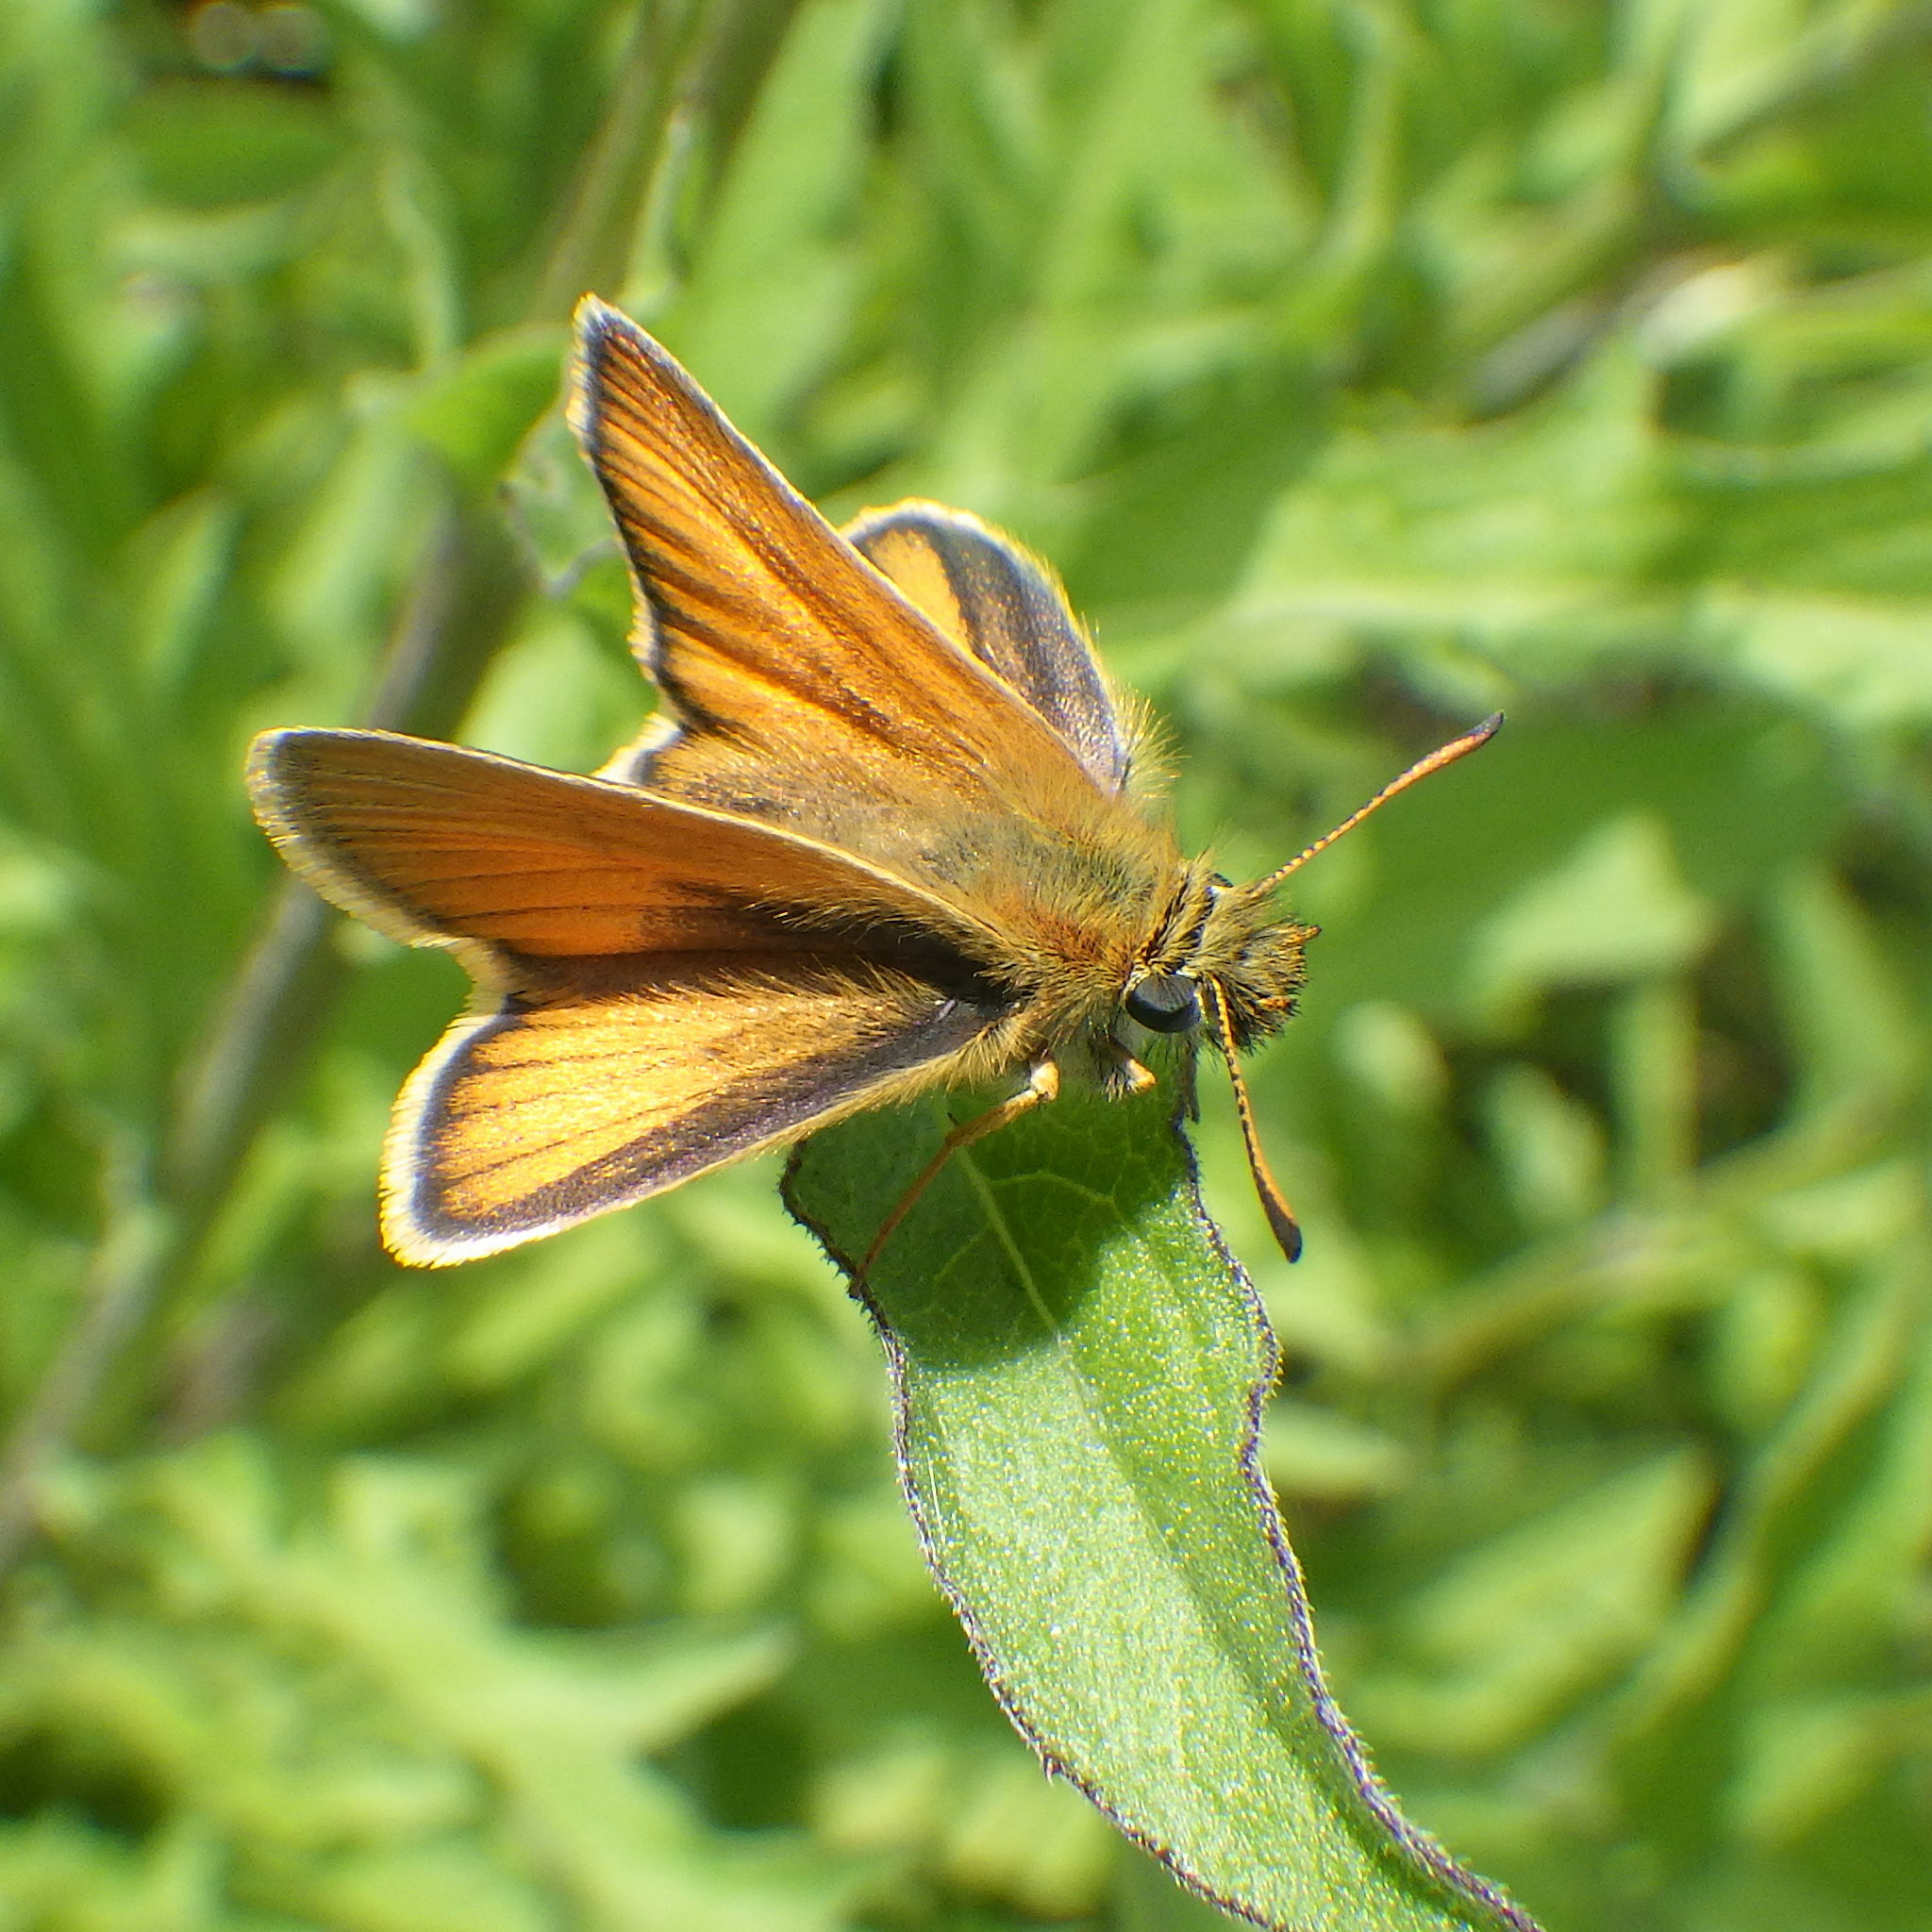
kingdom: Animalia
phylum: Arthropoda
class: Insecta
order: Lepidoptera
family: Hesperiidae
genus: Thymelicus
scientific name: Thymelicus lineola
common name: Essex skipper
